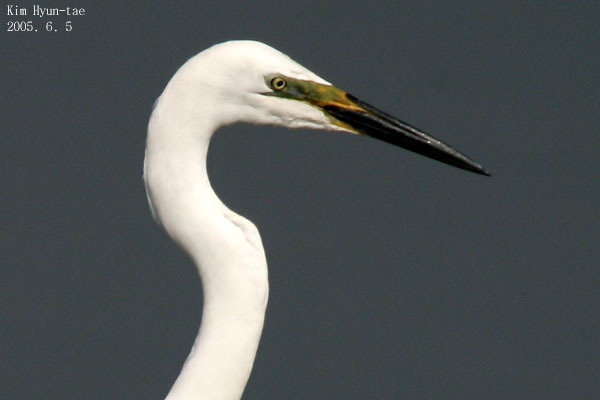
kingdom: Animalia
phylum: Chordata
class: Aves
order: Pelecaniformes
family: Ardeidae
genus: Ardea
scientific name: Ardea alba
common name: Great egret
